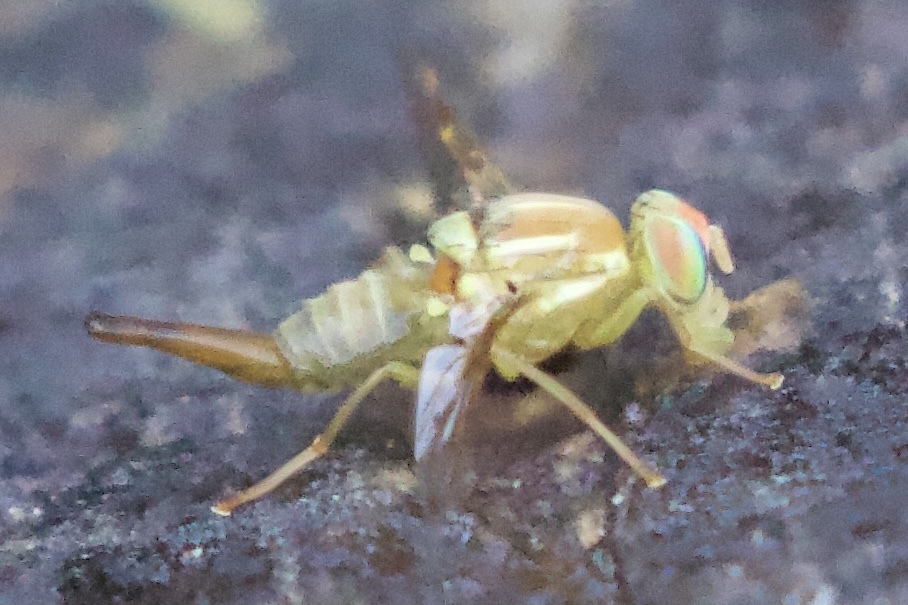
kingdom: Animalia
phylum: Arthropoda
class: Insecta
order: Diptera
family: Tephritidae
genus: Anastrepha
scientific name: Anastrepha ludens
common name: Mexican fruit fly
